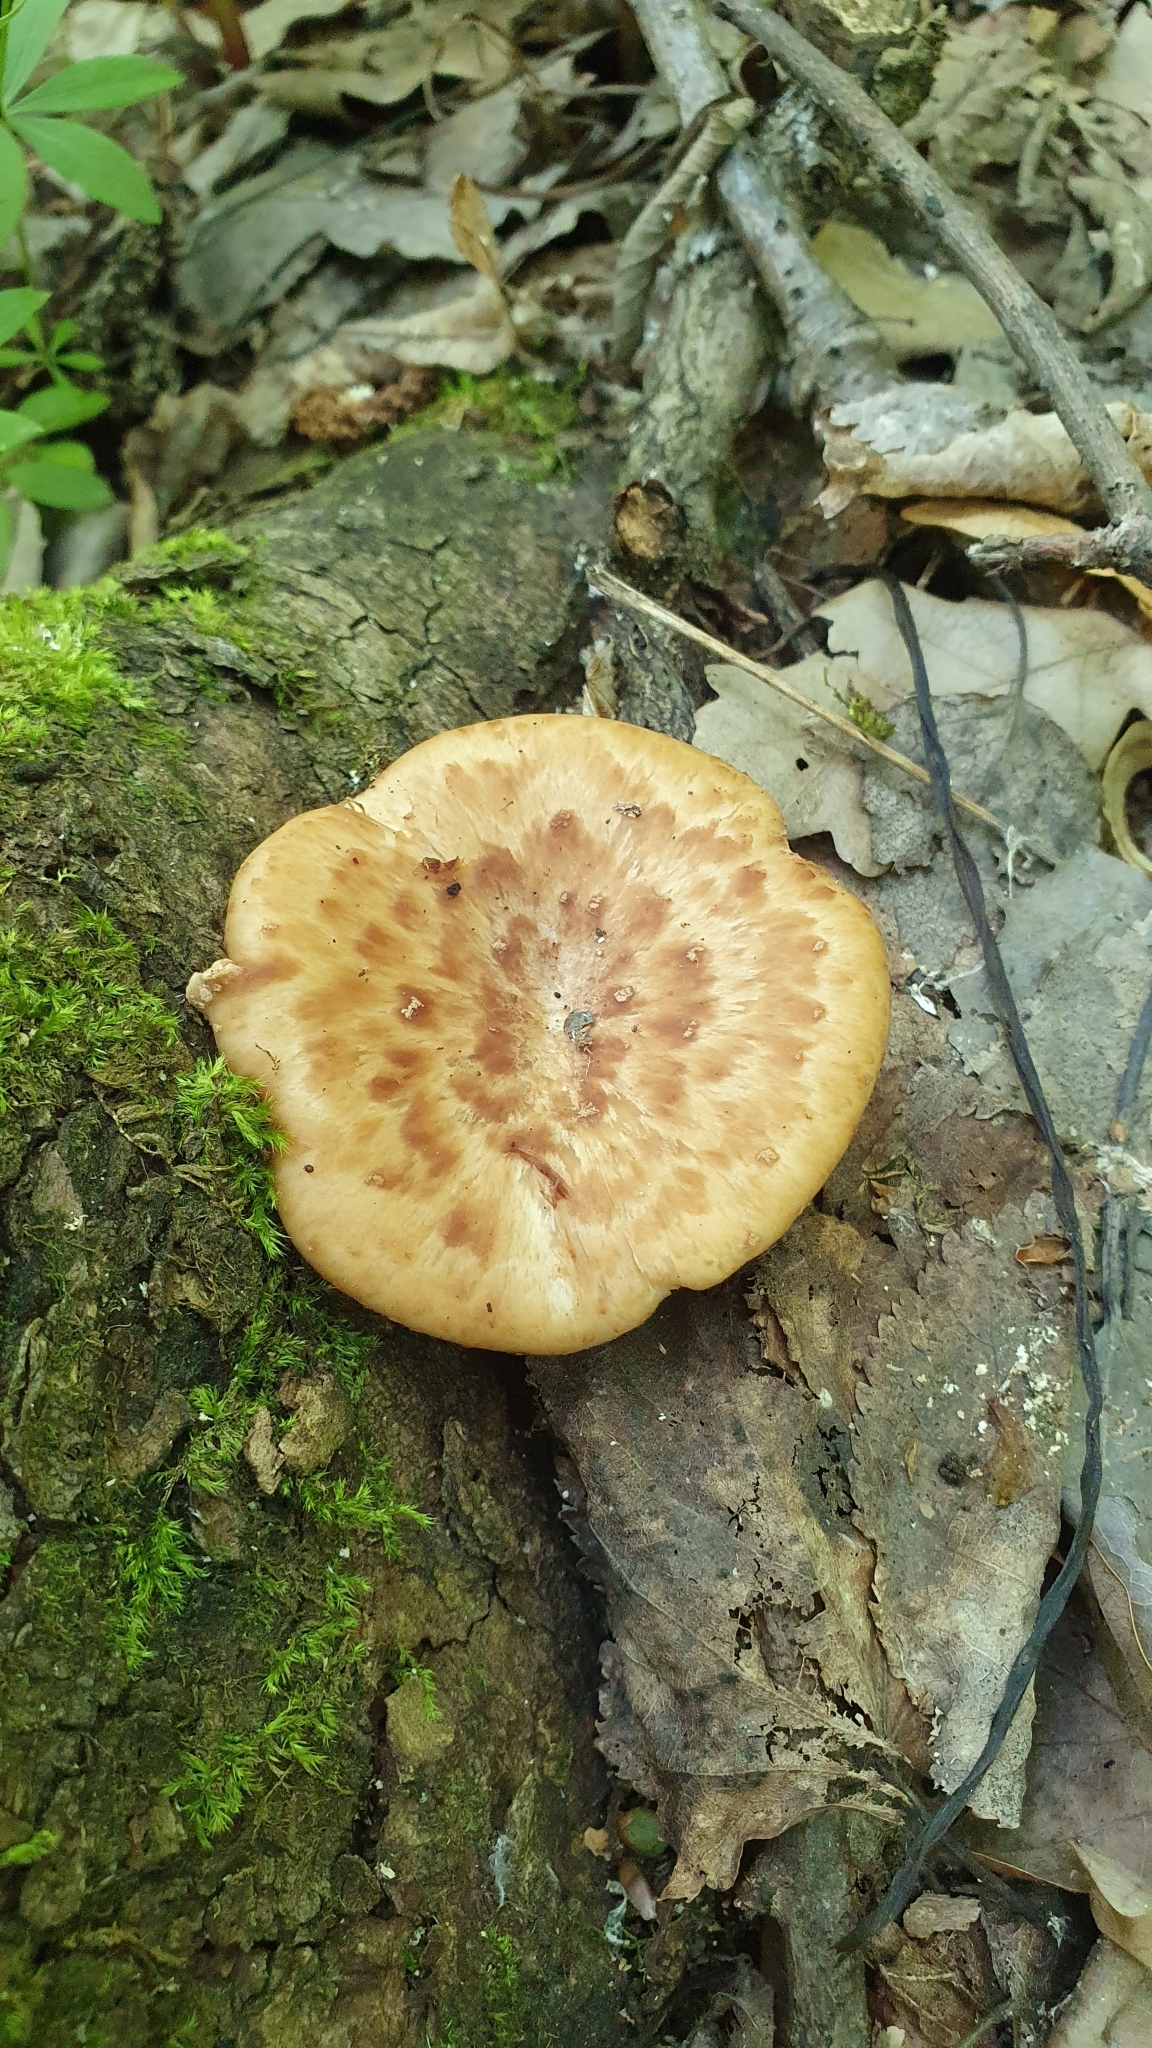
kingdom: Fungi
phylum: Basidiomycota
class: Agaricomycetes
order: Polyporales
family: Polyporaceae
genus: Polyporus
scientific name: Polyporus tuberaster
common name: Tuberous polypore
